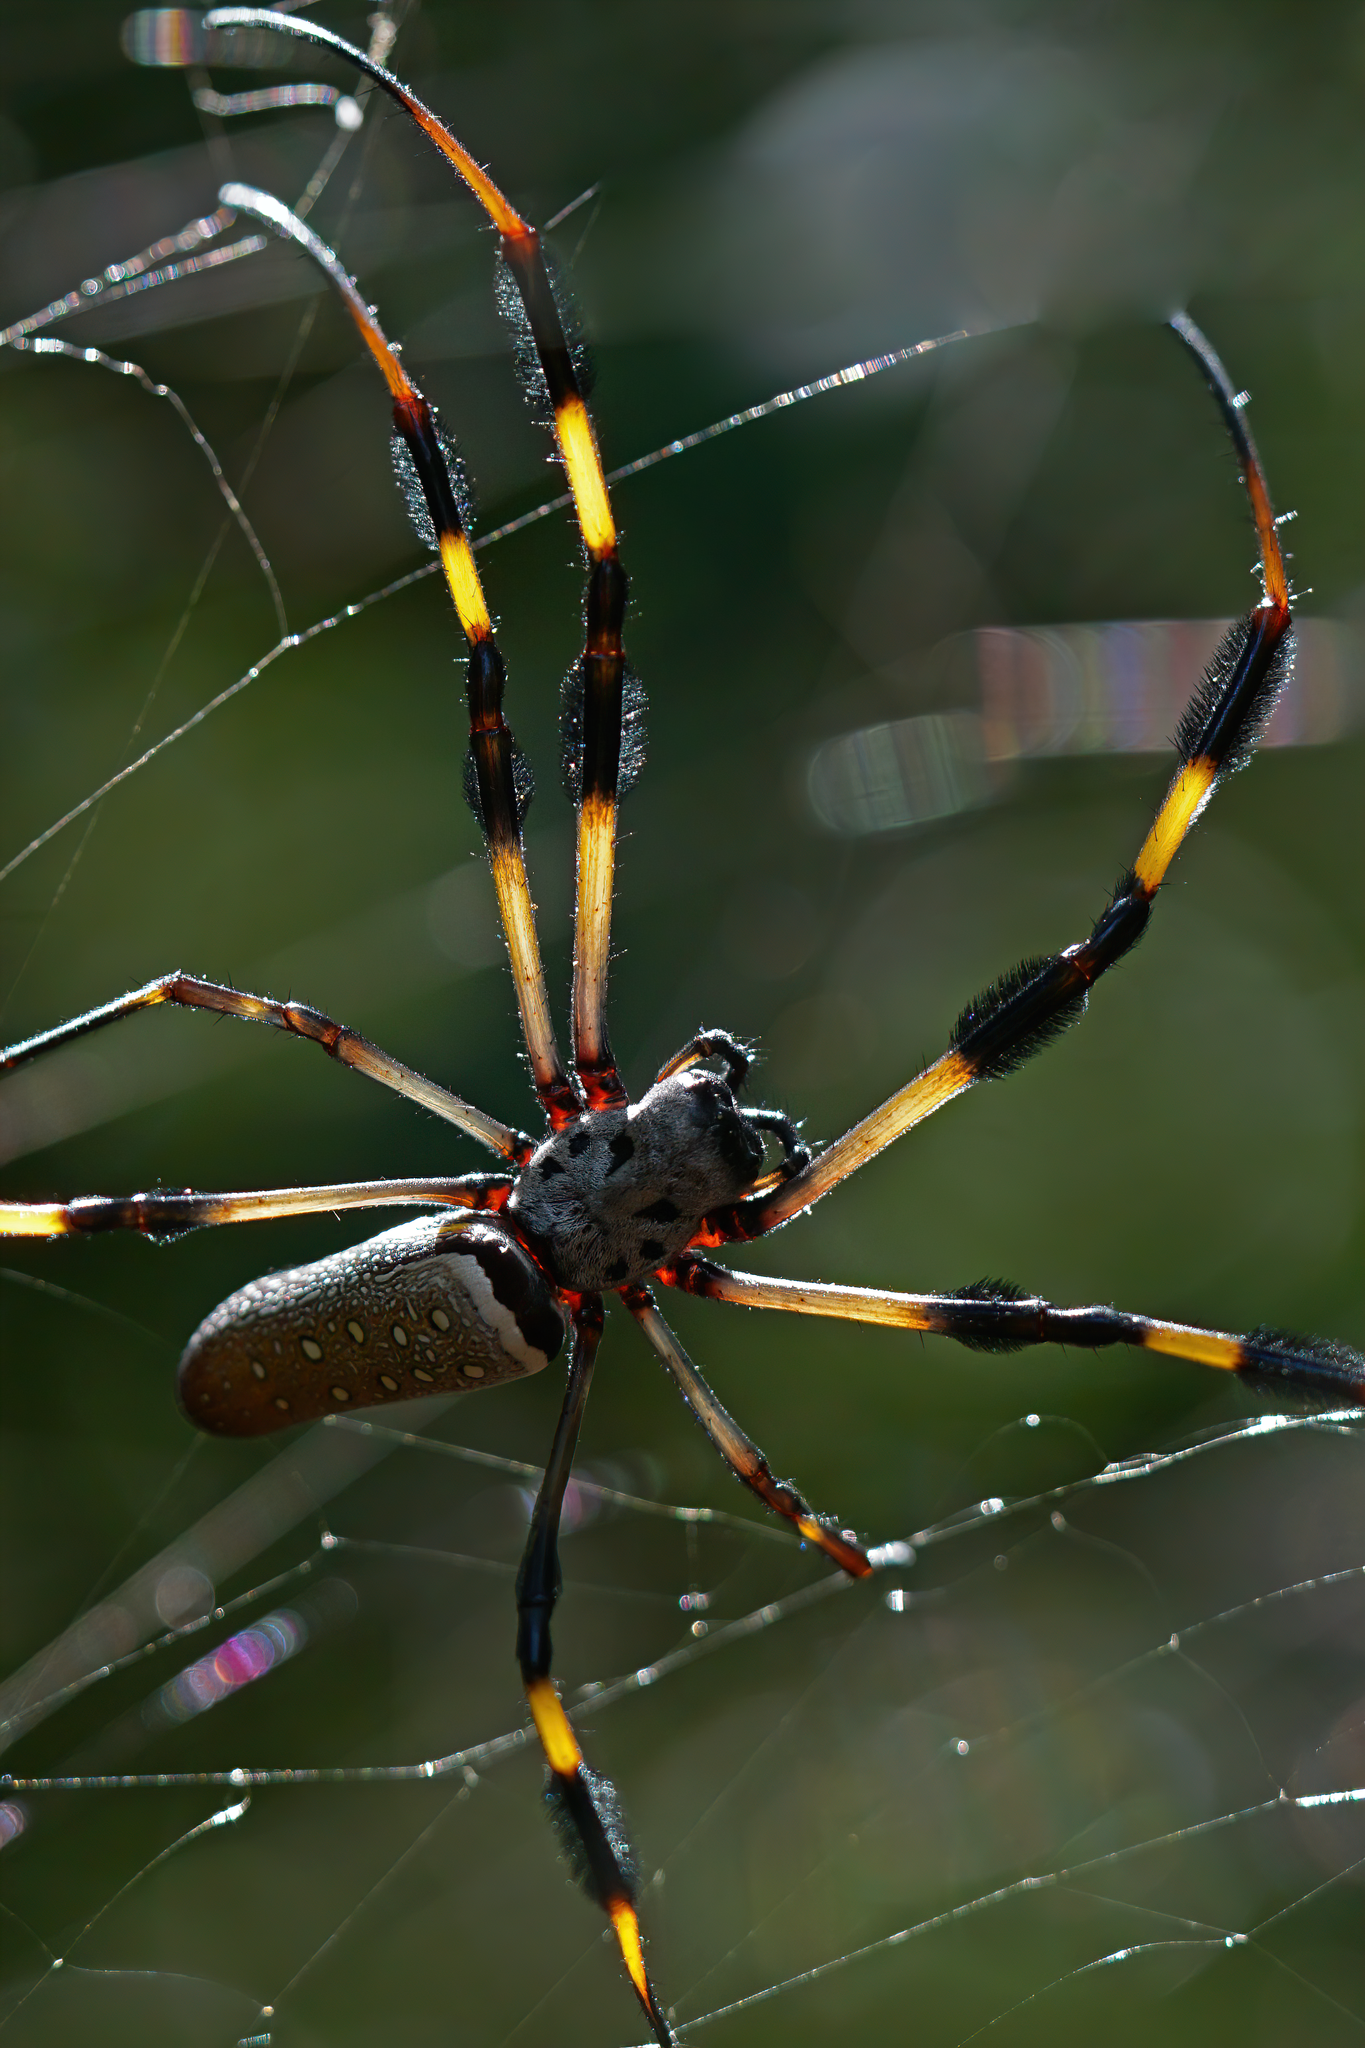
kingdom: Animalia
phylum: Arthropoda
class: Arachnida
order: Araneae
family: Araneidae
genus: Trichonephila
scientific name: Trichonephila clavipes
